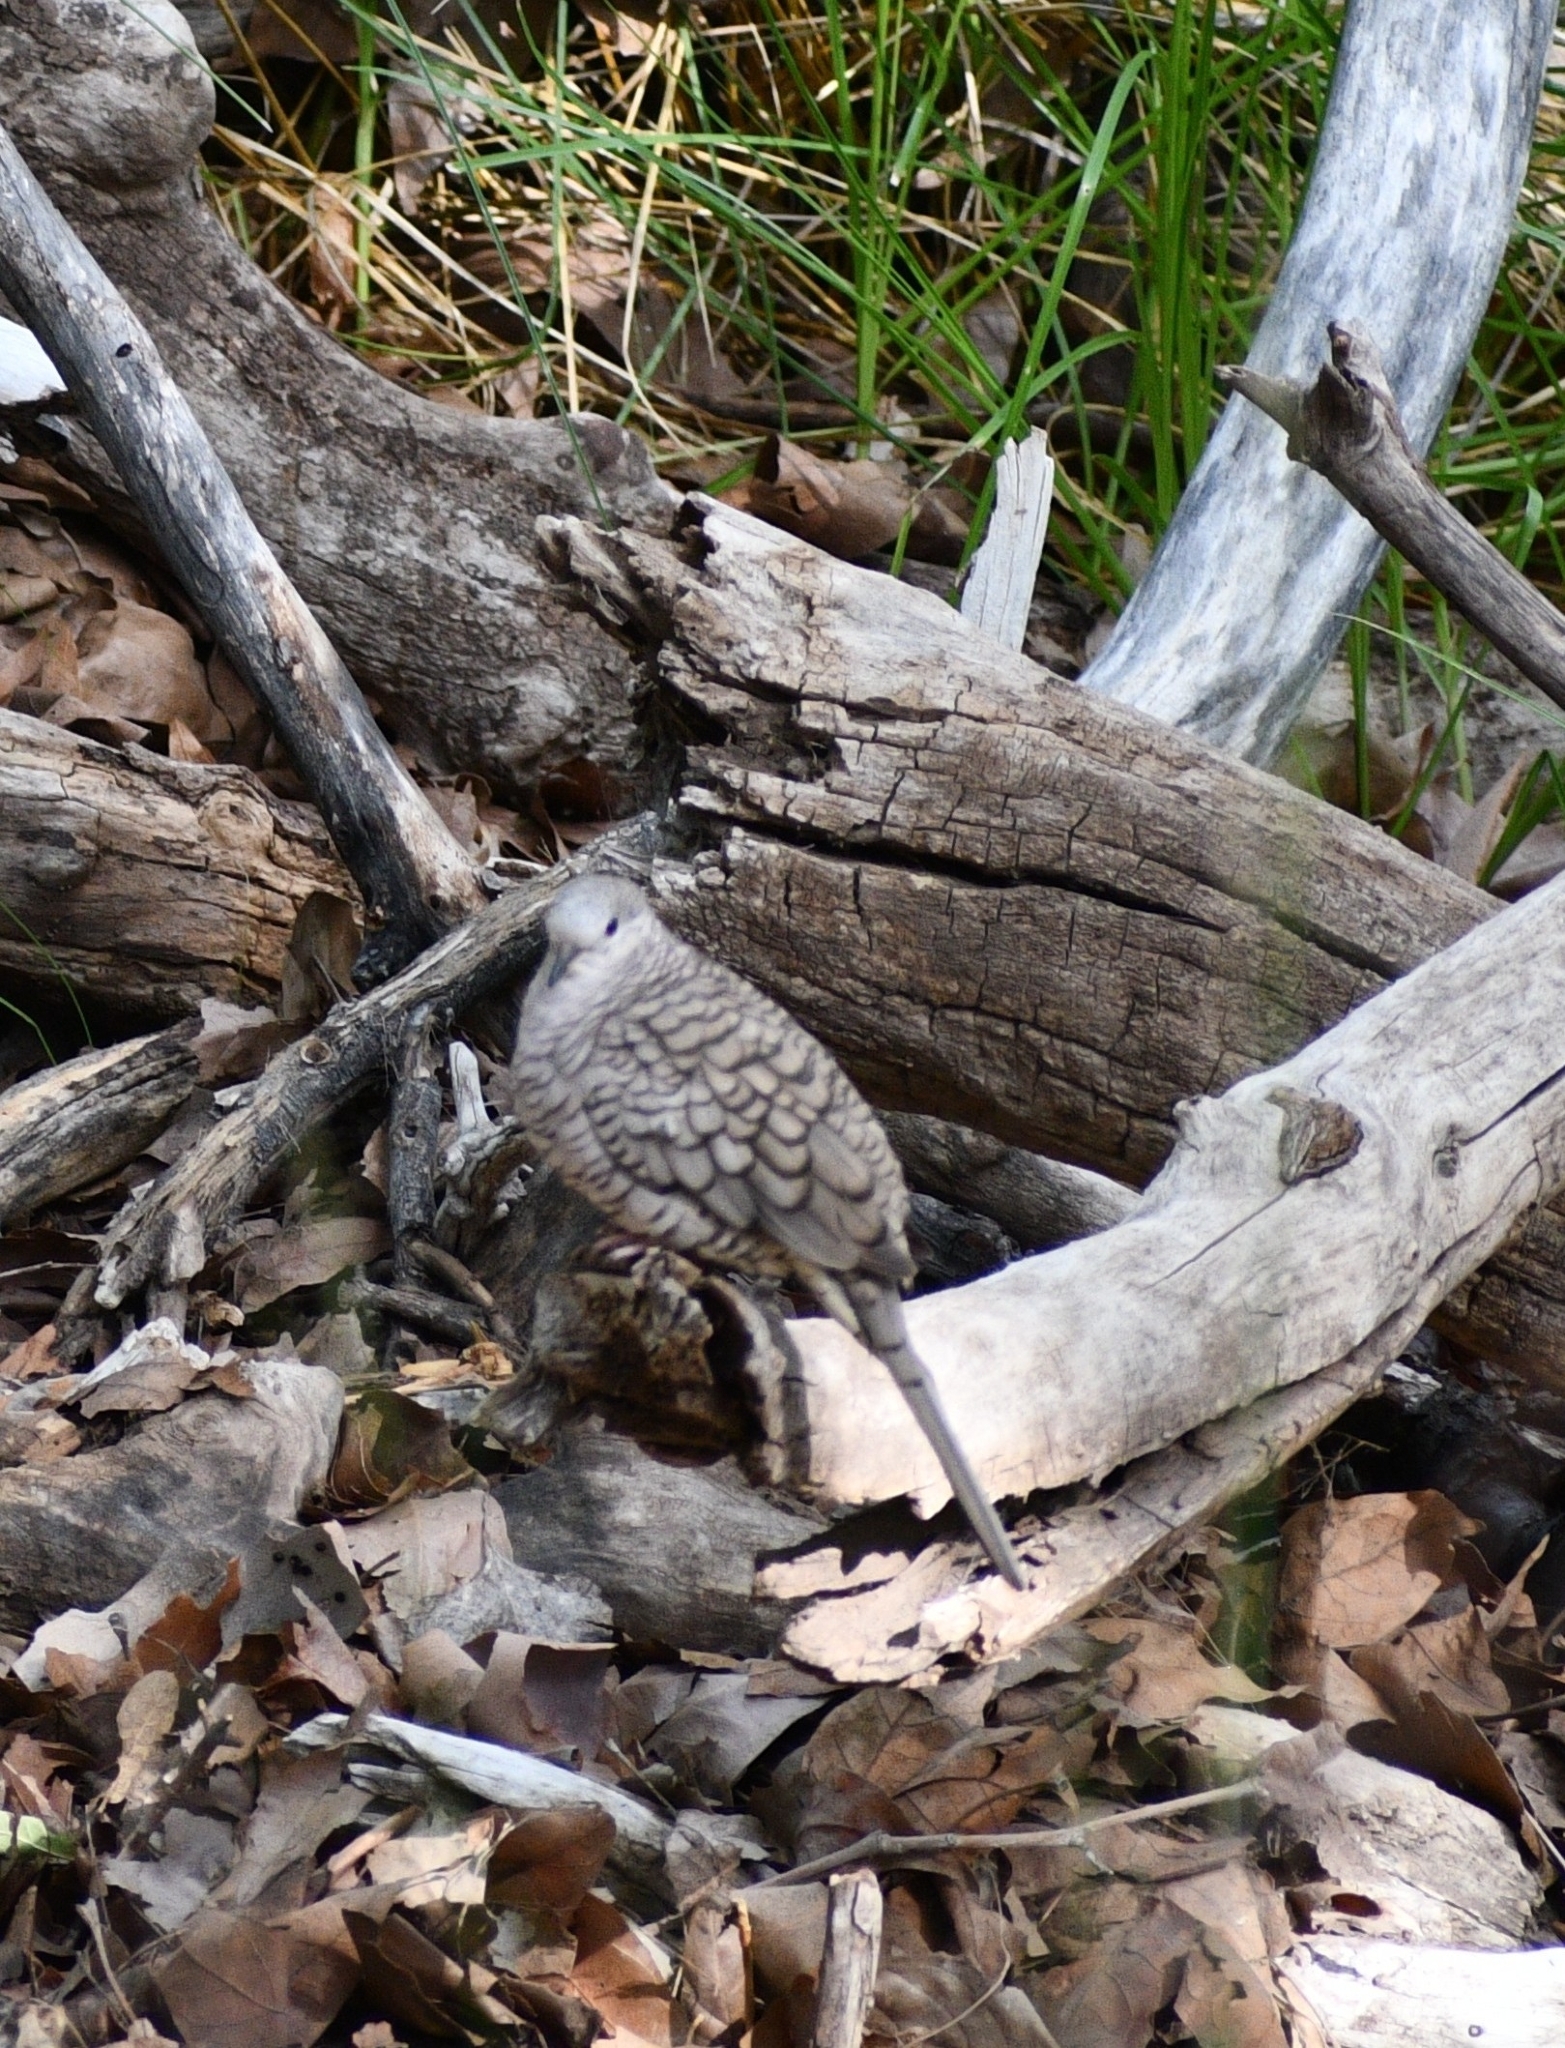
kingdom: Animalia
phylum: Chordata
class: Aves
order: Columbiformes
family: Columbidae
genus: Columbina
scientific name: Columbina inca
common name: Inca dove
